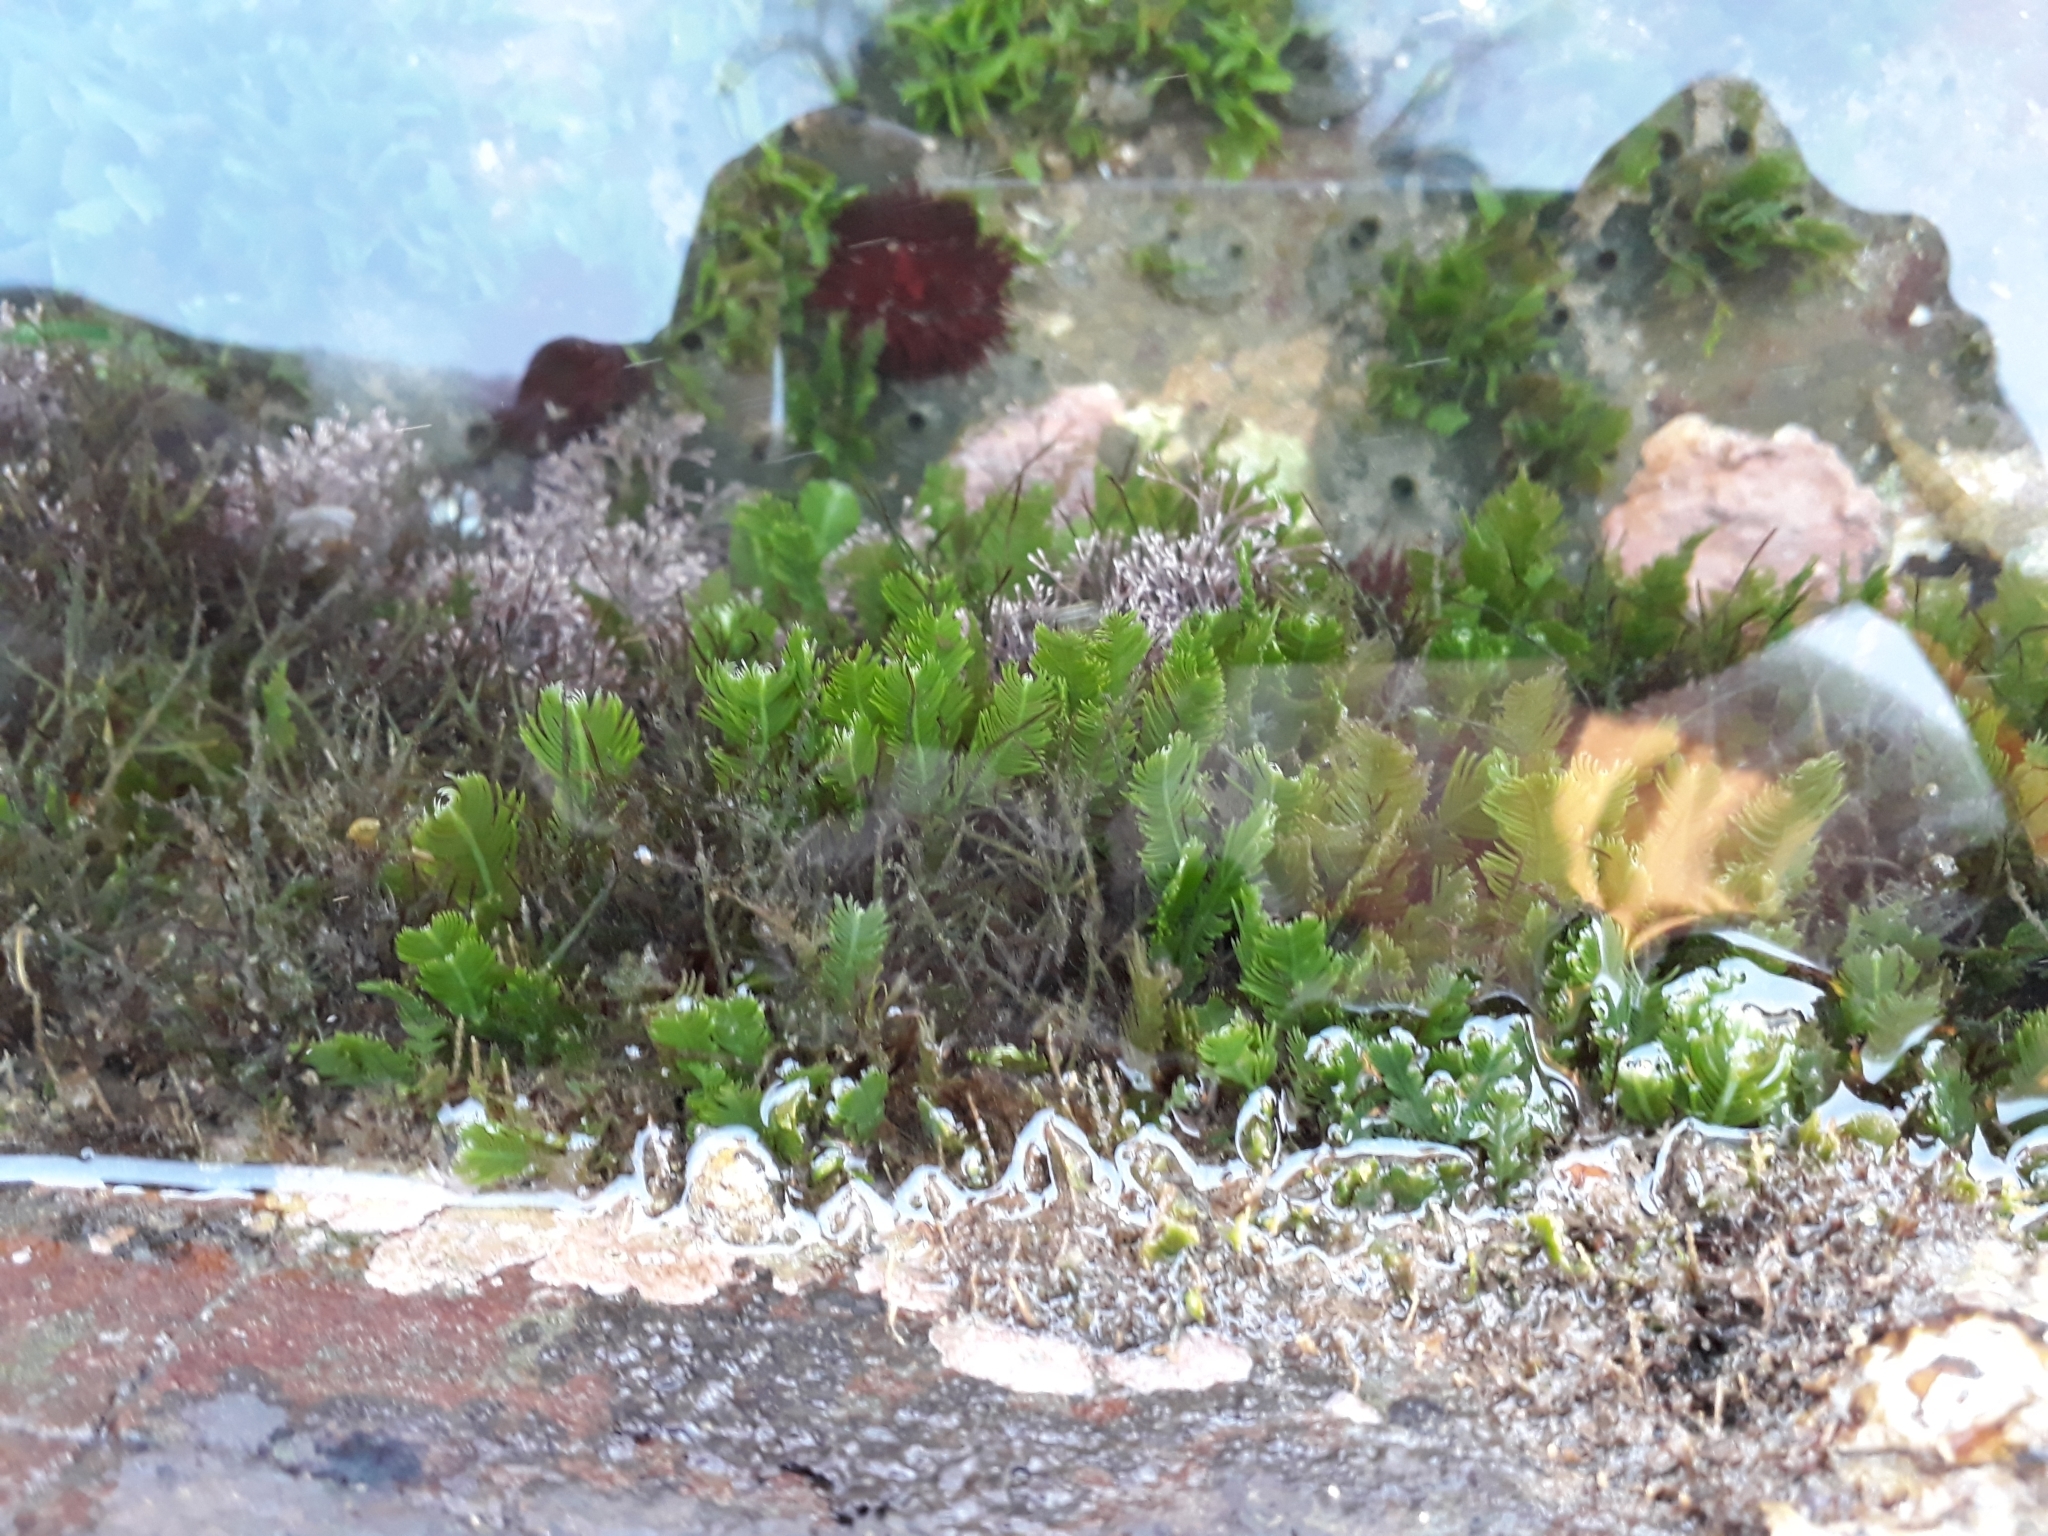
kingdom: Plantae
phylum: Chlorophyta
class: Ulvophyceae
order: Bryopsidales
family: Caulerpaceae
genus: Caulerpa
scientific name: Caulerpa taxifolia
